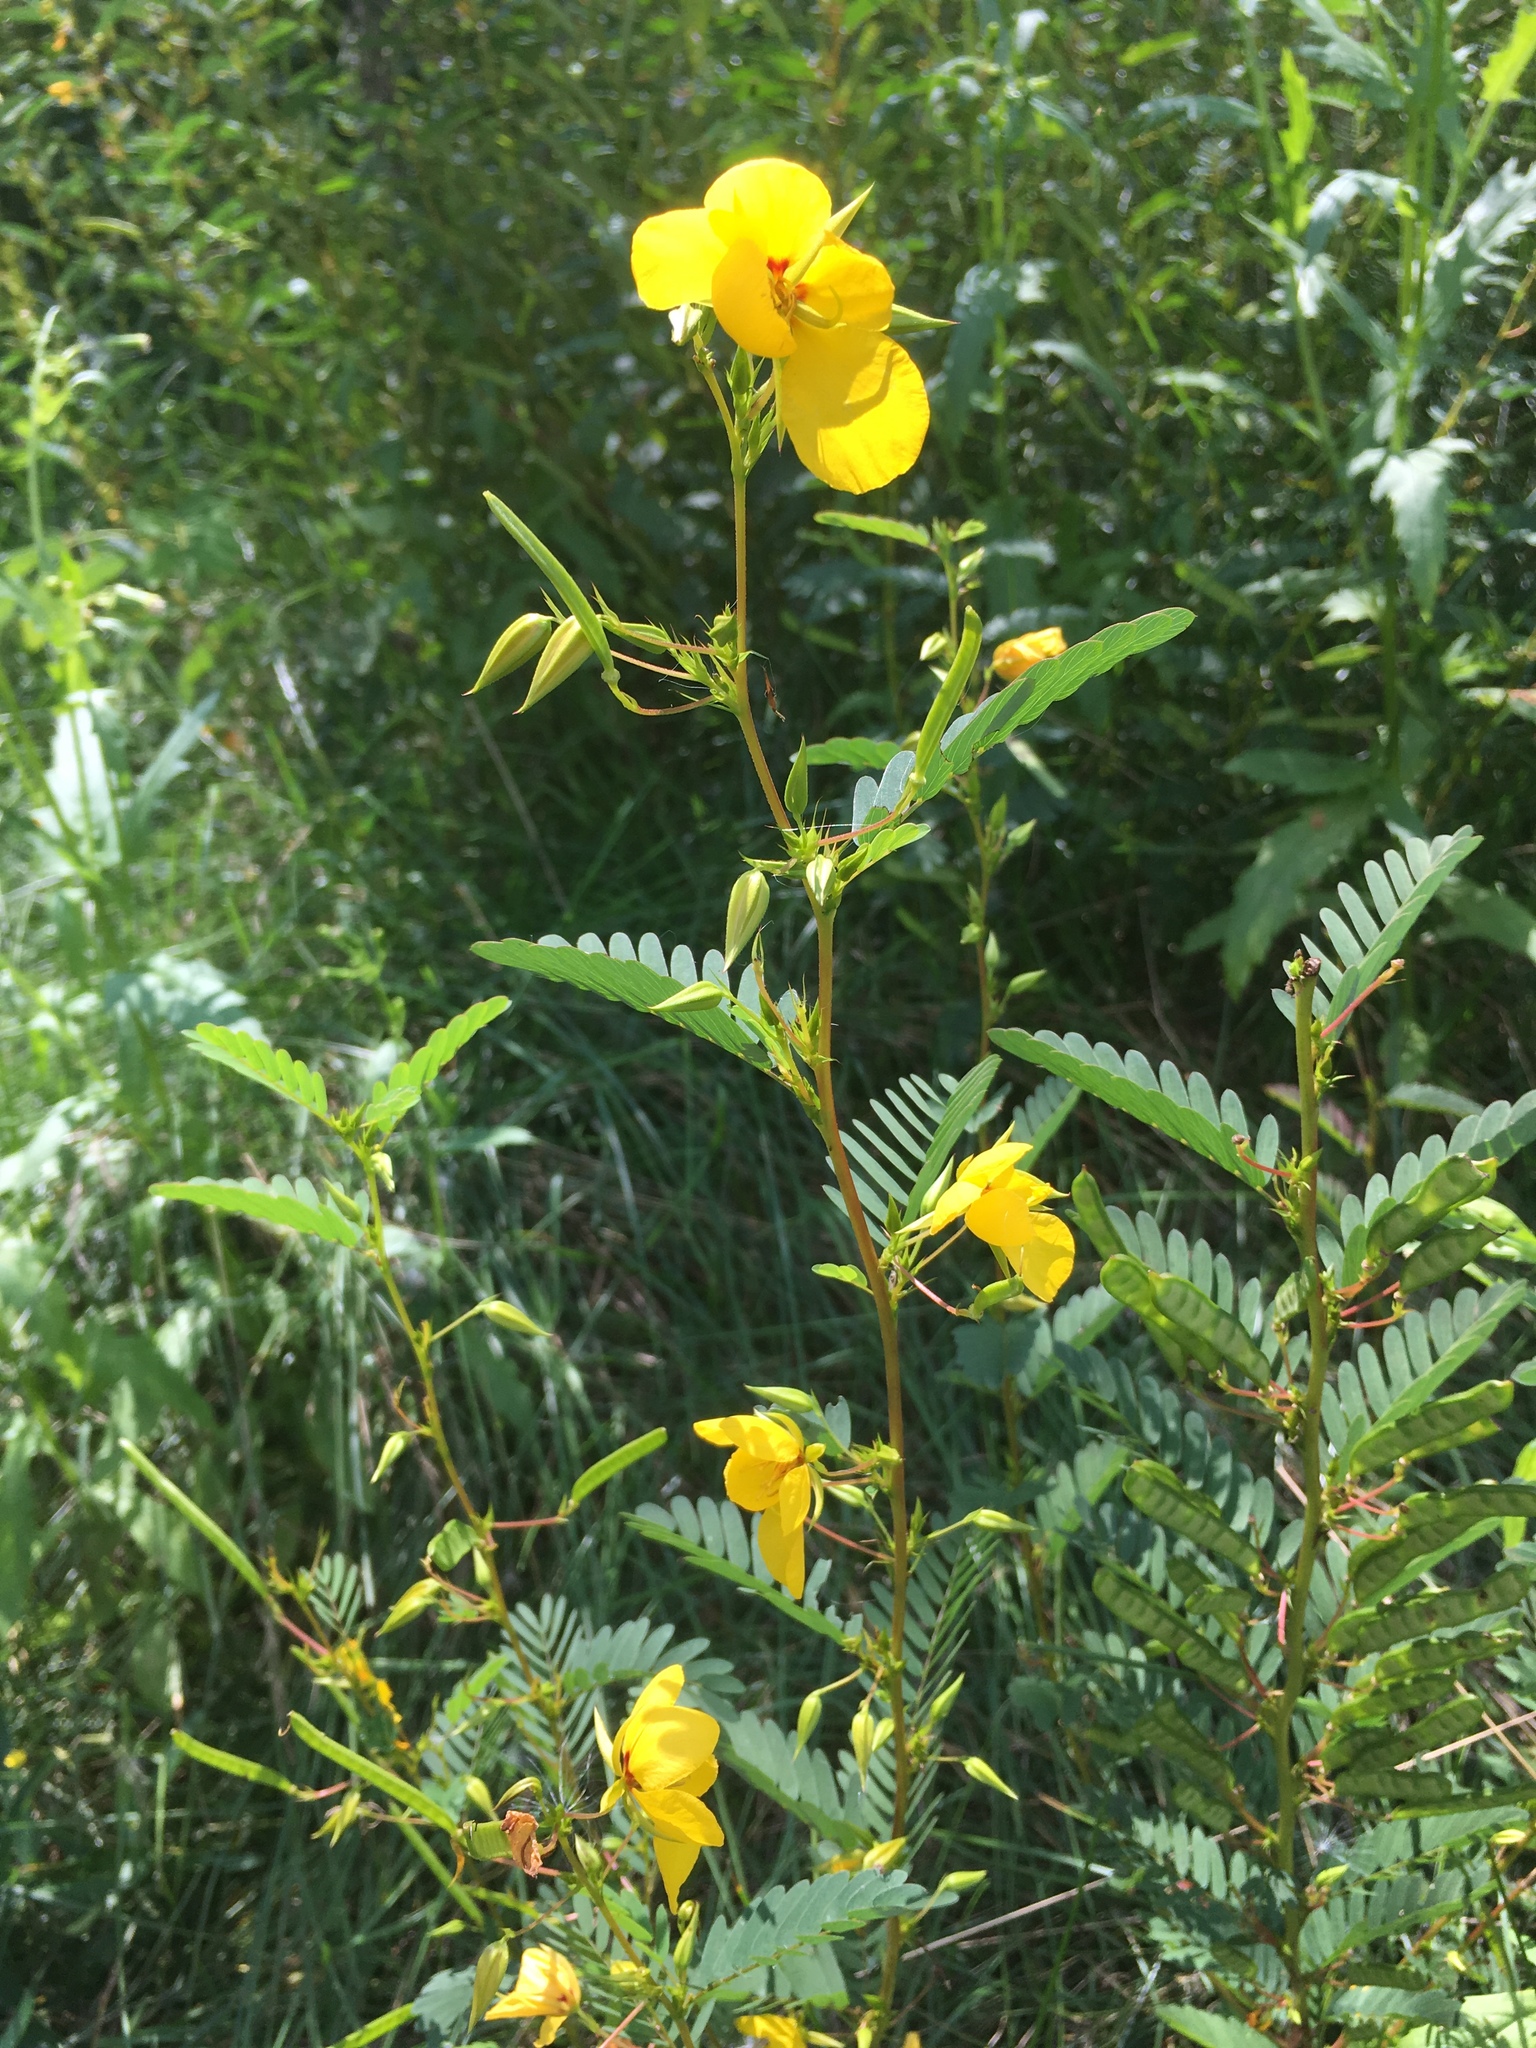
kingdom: Plantae
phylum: Tracheophyta
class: Magnoliopsida
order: Fabales
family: Fabaceae
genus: Chamaecrista
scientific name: Chamaecrista fasciculata
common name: Golden cassia
